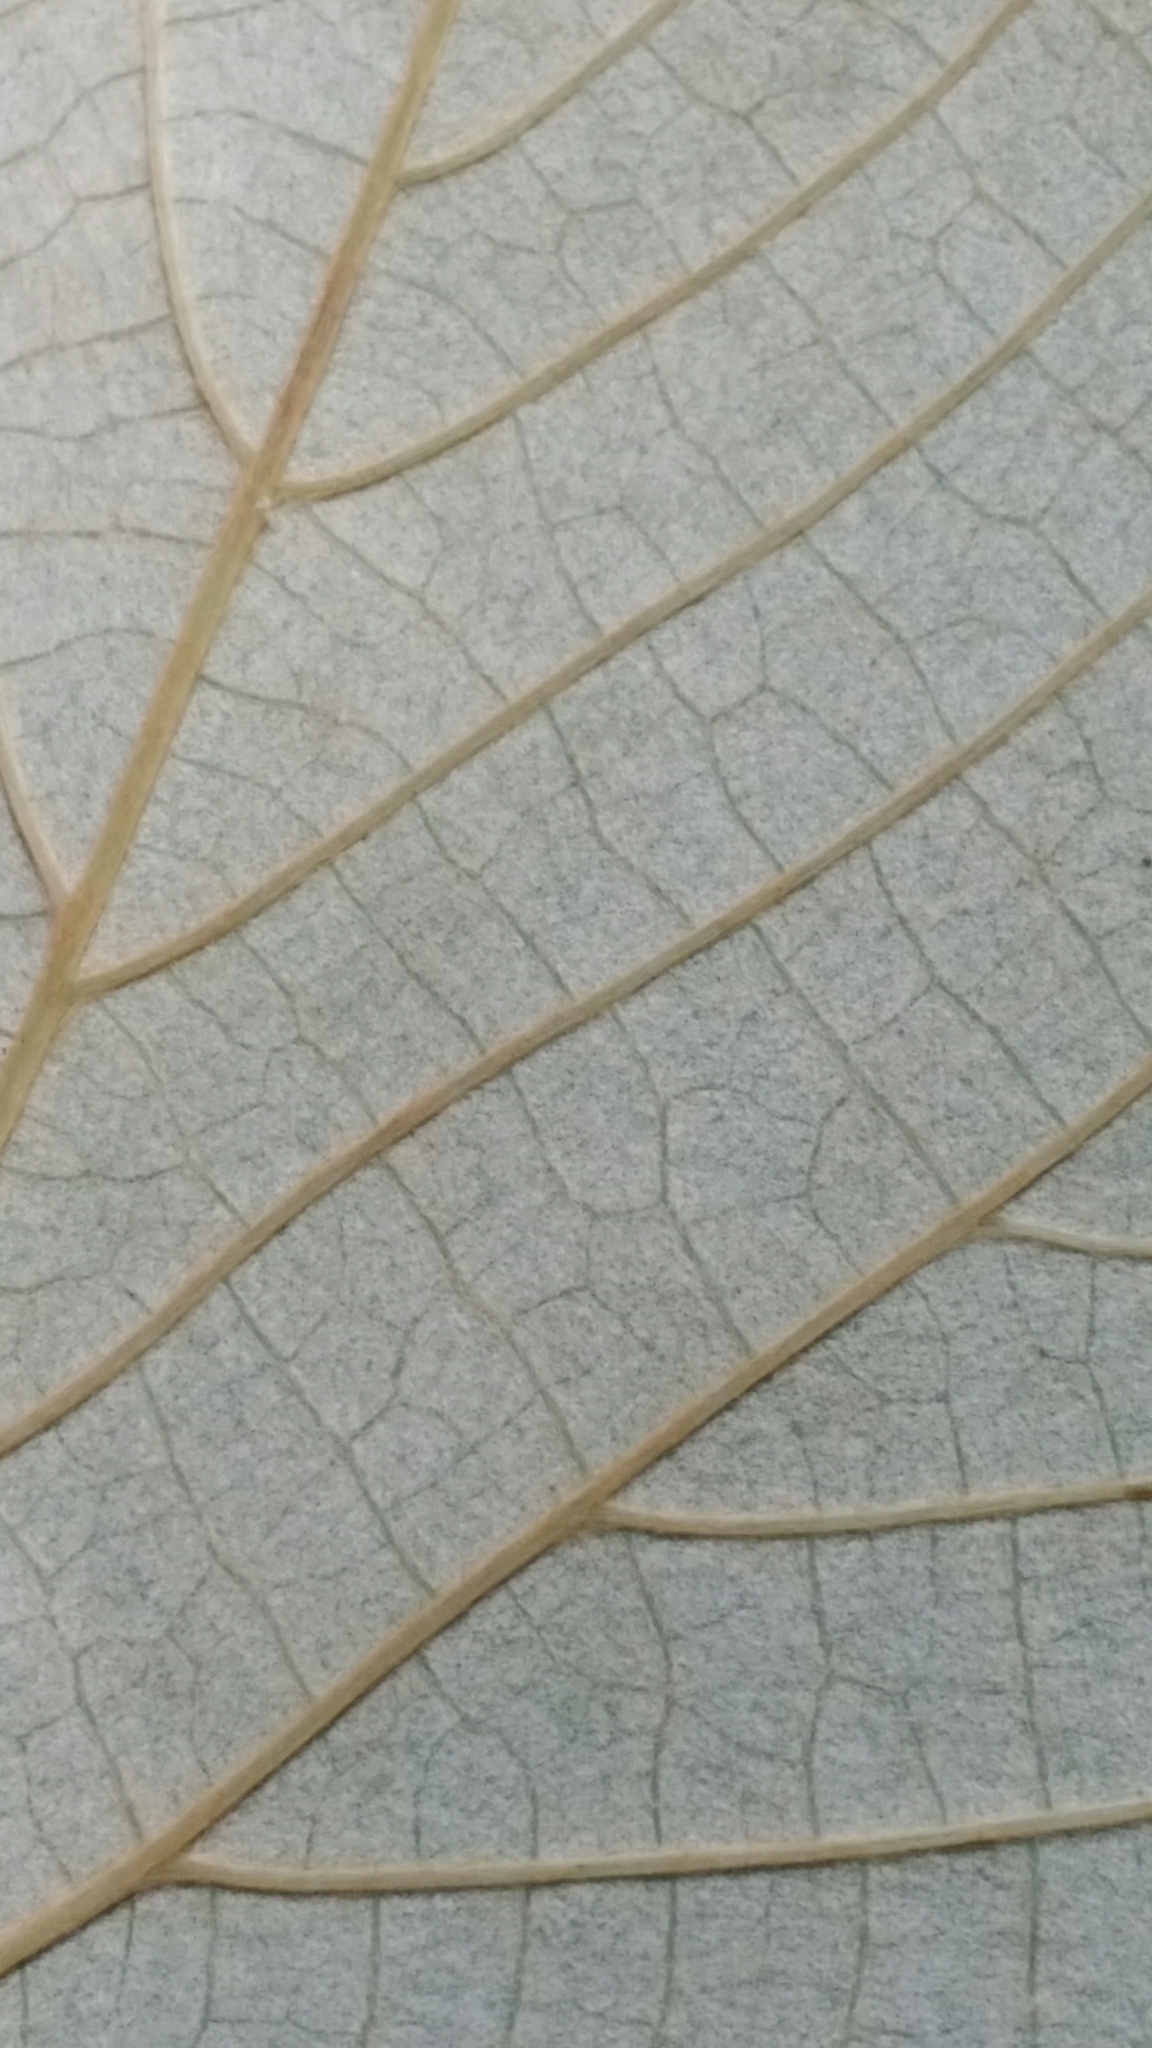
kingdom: Plantae
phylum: Tracheophyta
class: Magnoliopsida
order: Vitales
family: Vitaceae
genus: Vitis
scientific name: Vitis shuttleworthii
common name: Caloosa grape
